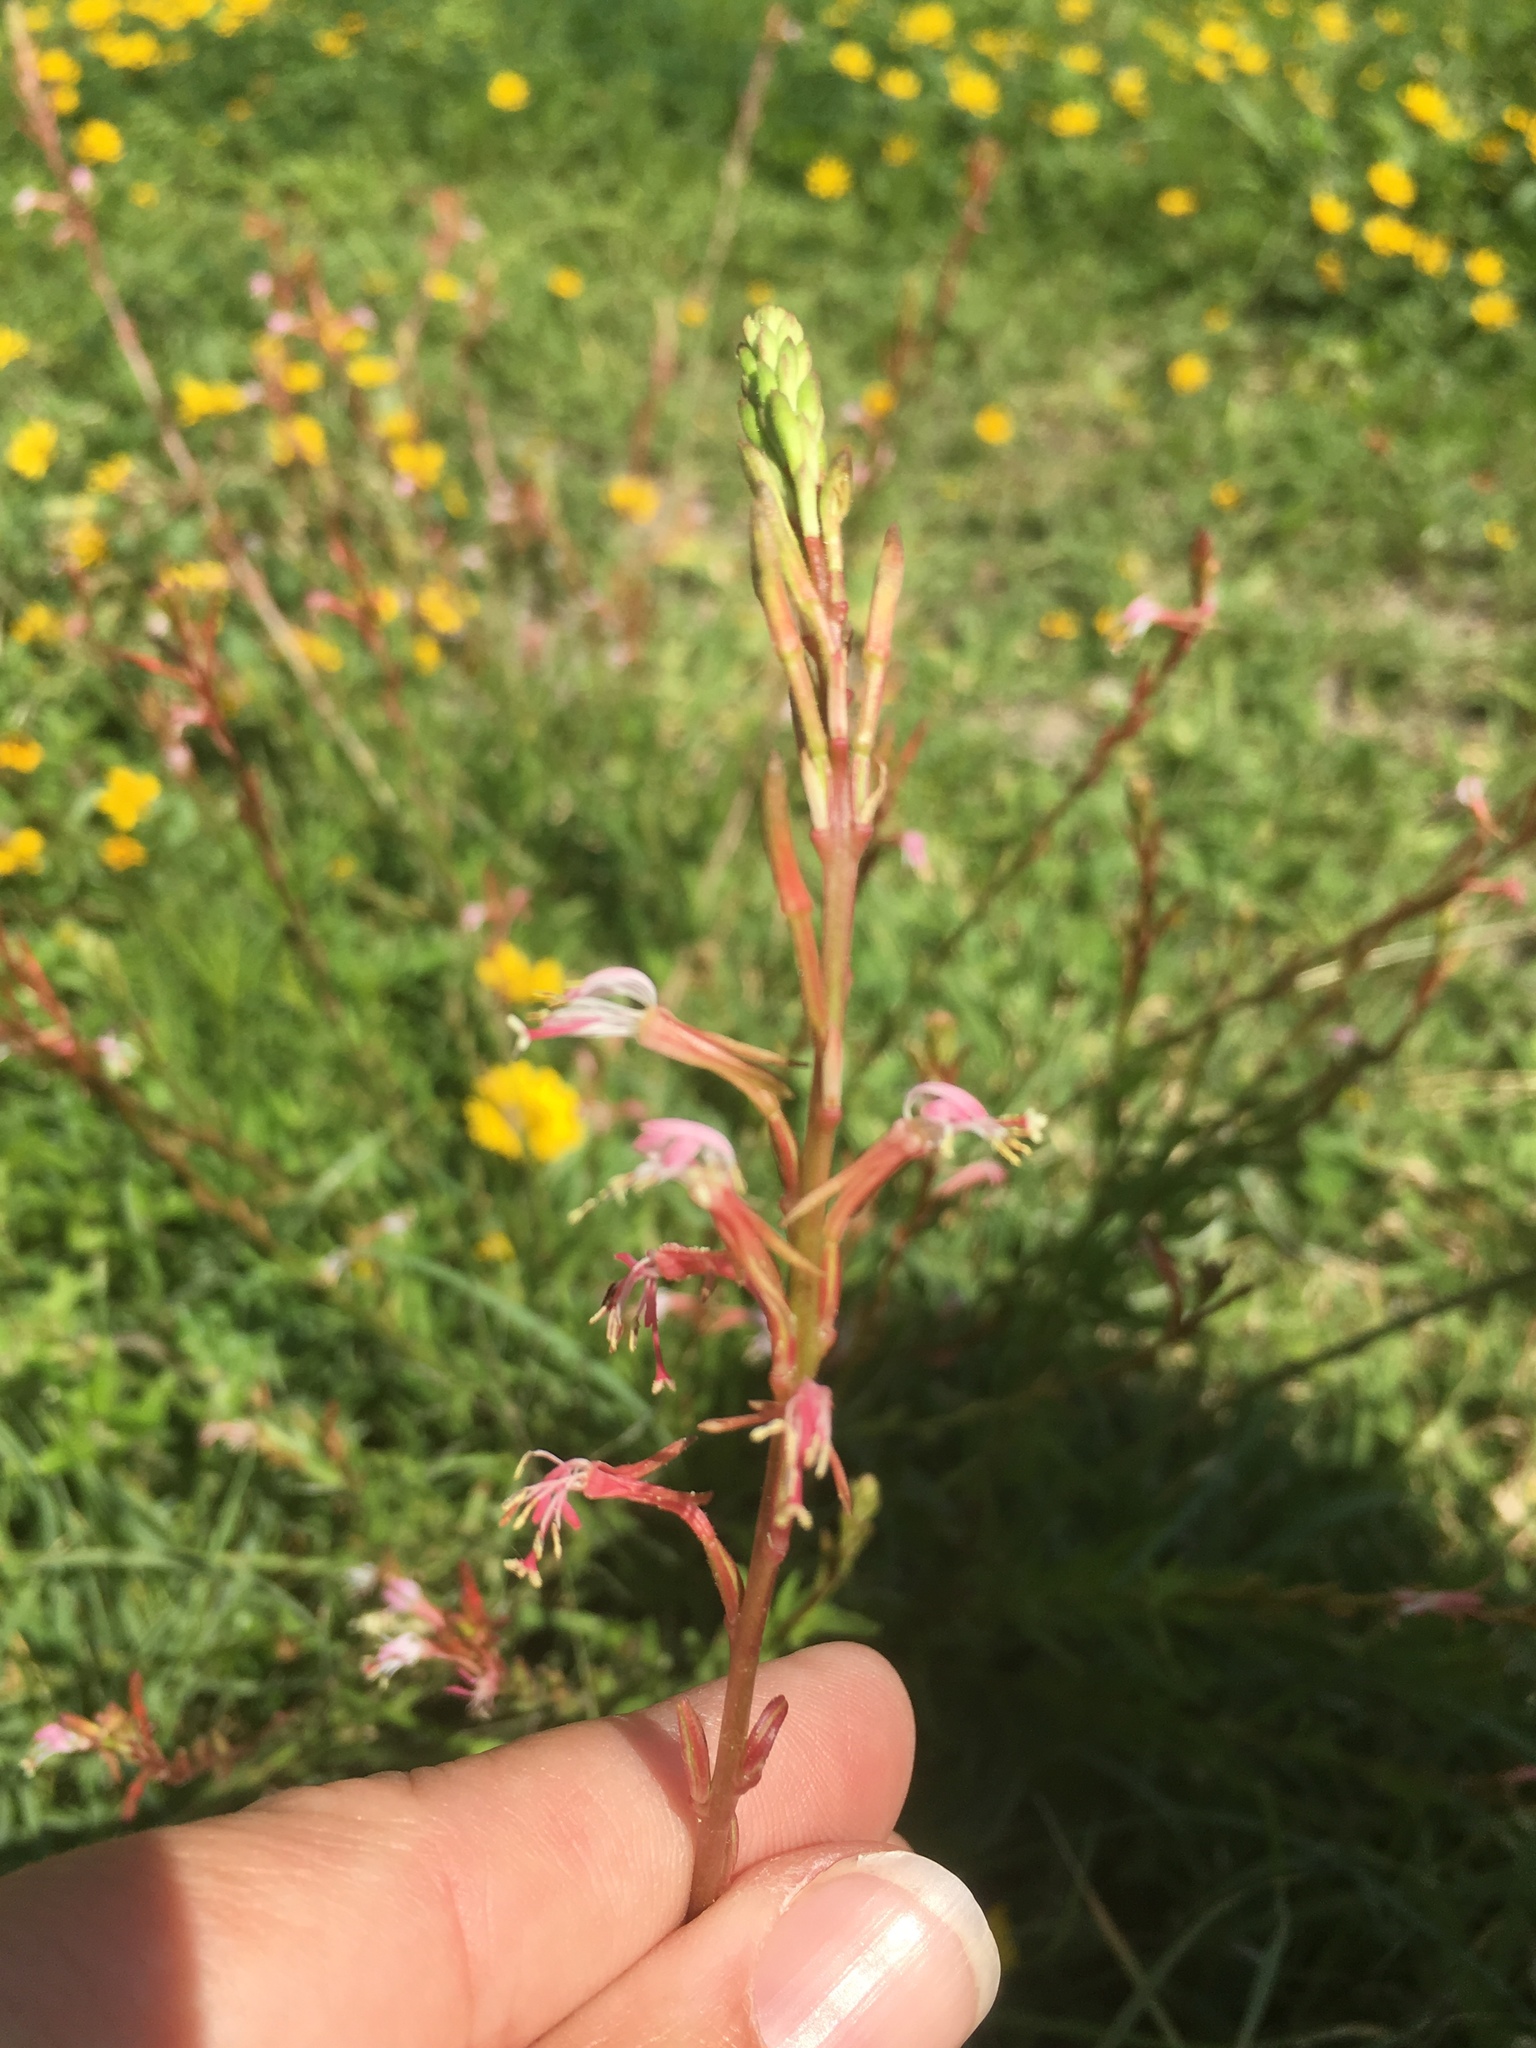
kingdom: Plantae
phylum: Tracheophyta
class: Magnoliopsida
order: Myrtales
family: Onagraceae
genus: Oenothera
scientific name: Oenothera hexandra
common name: Harlequinbush
